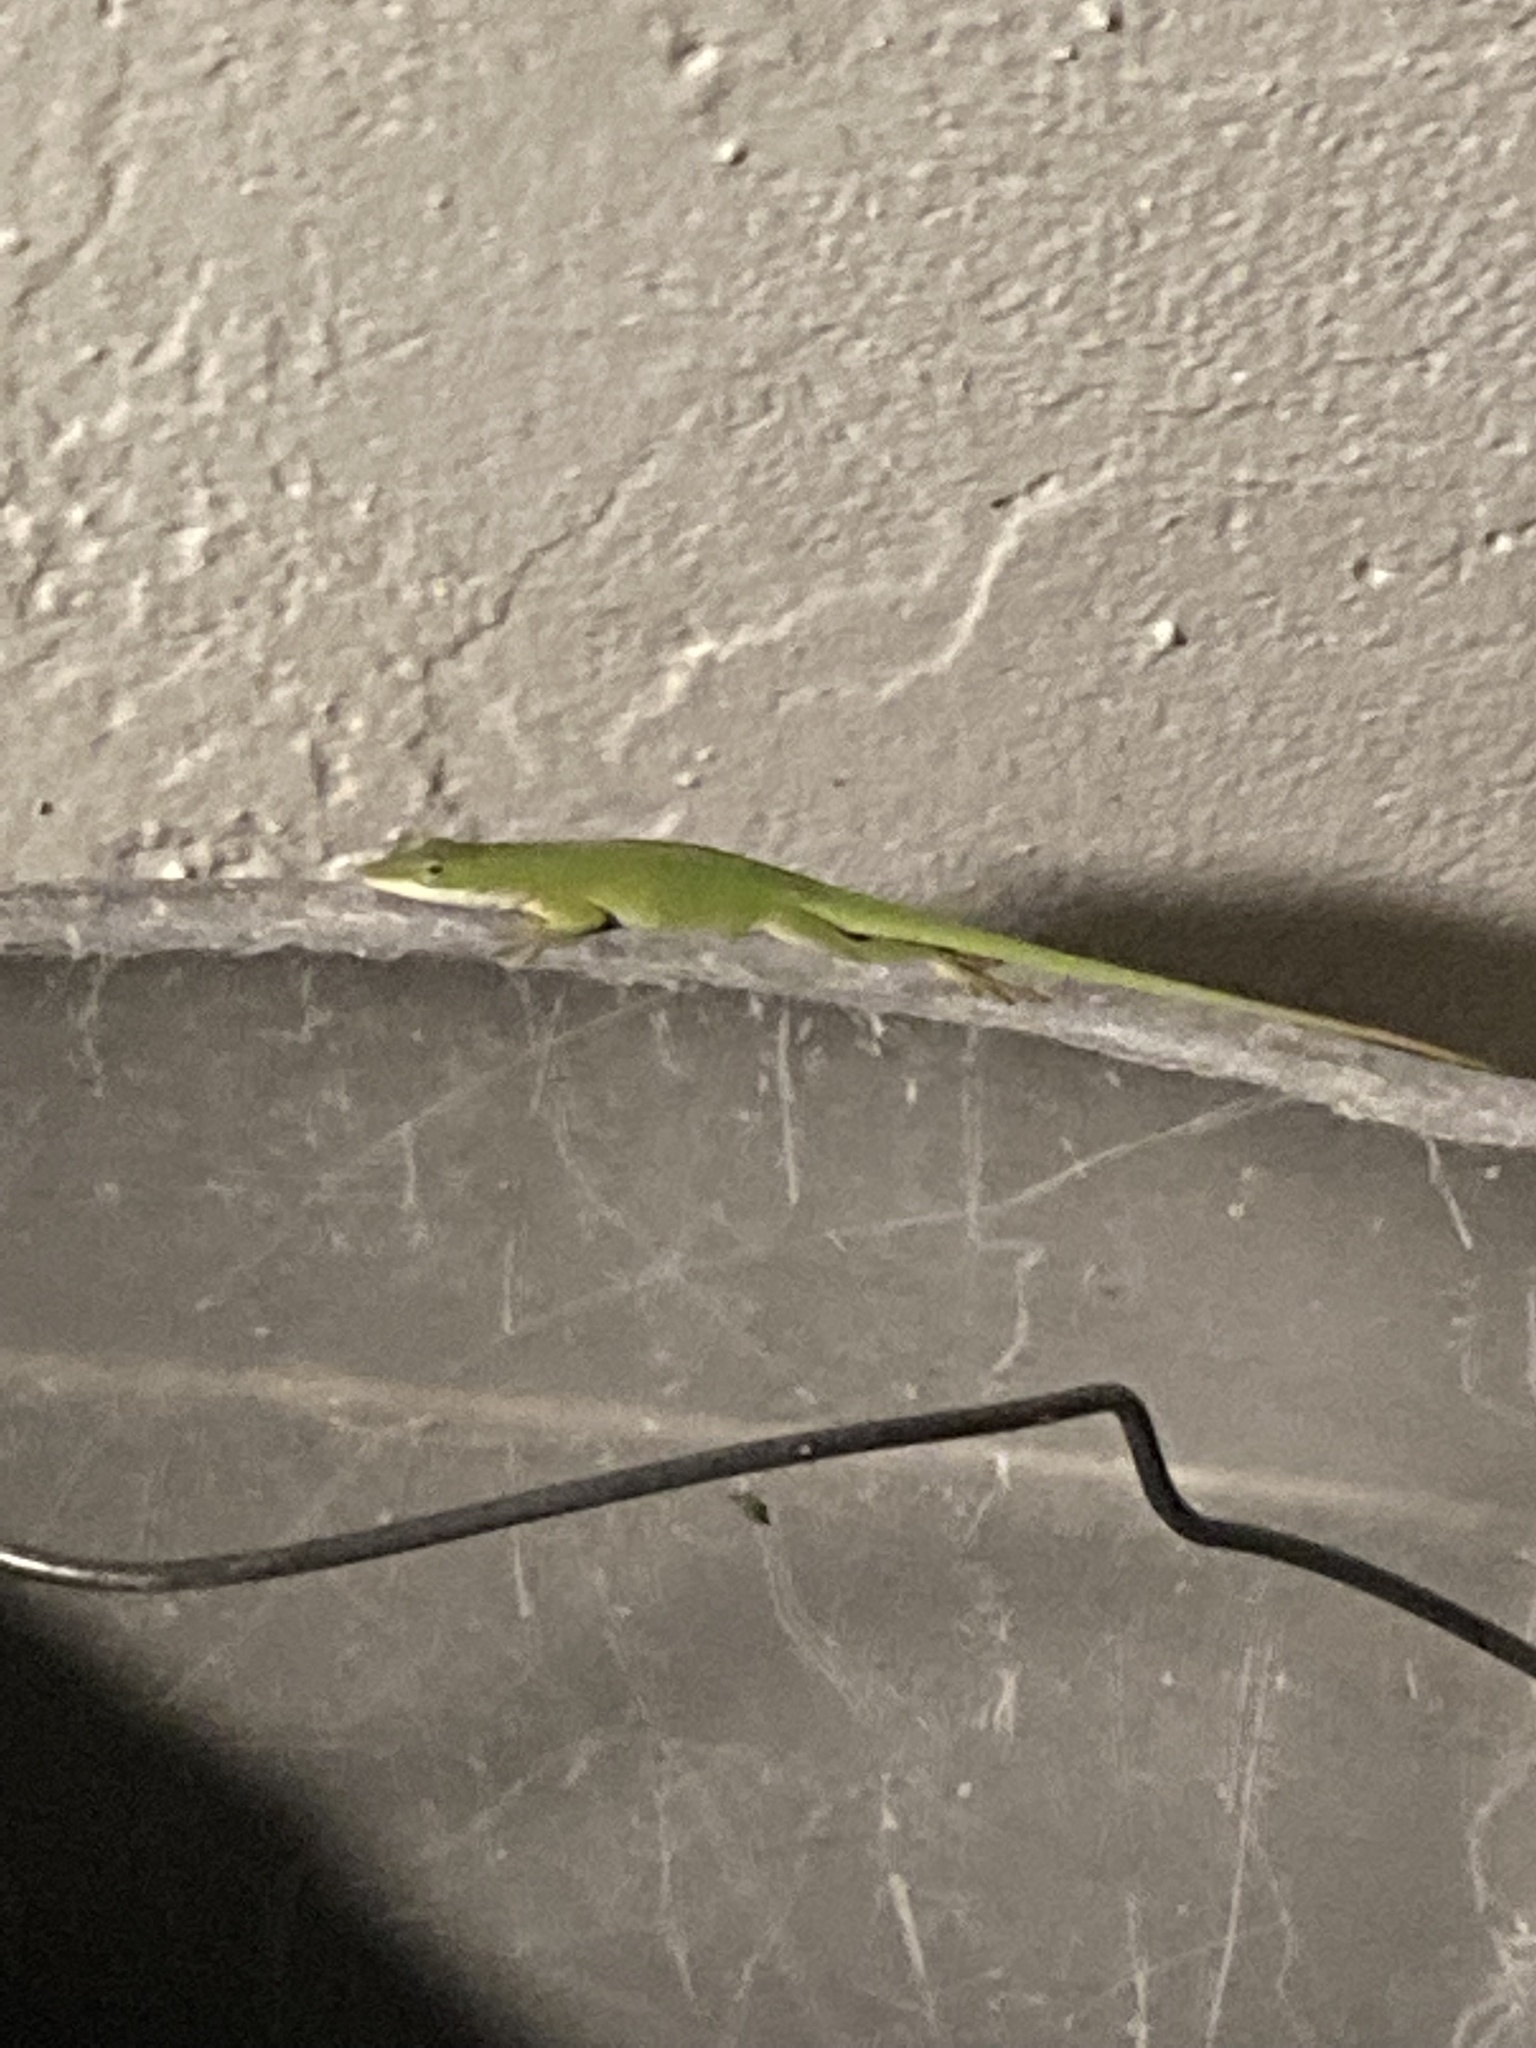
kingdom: Animalia
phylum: Chordata
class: Squamata
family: Dactyloidae
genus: Anolis
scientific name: Anolis carolinensis
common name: Green anole
